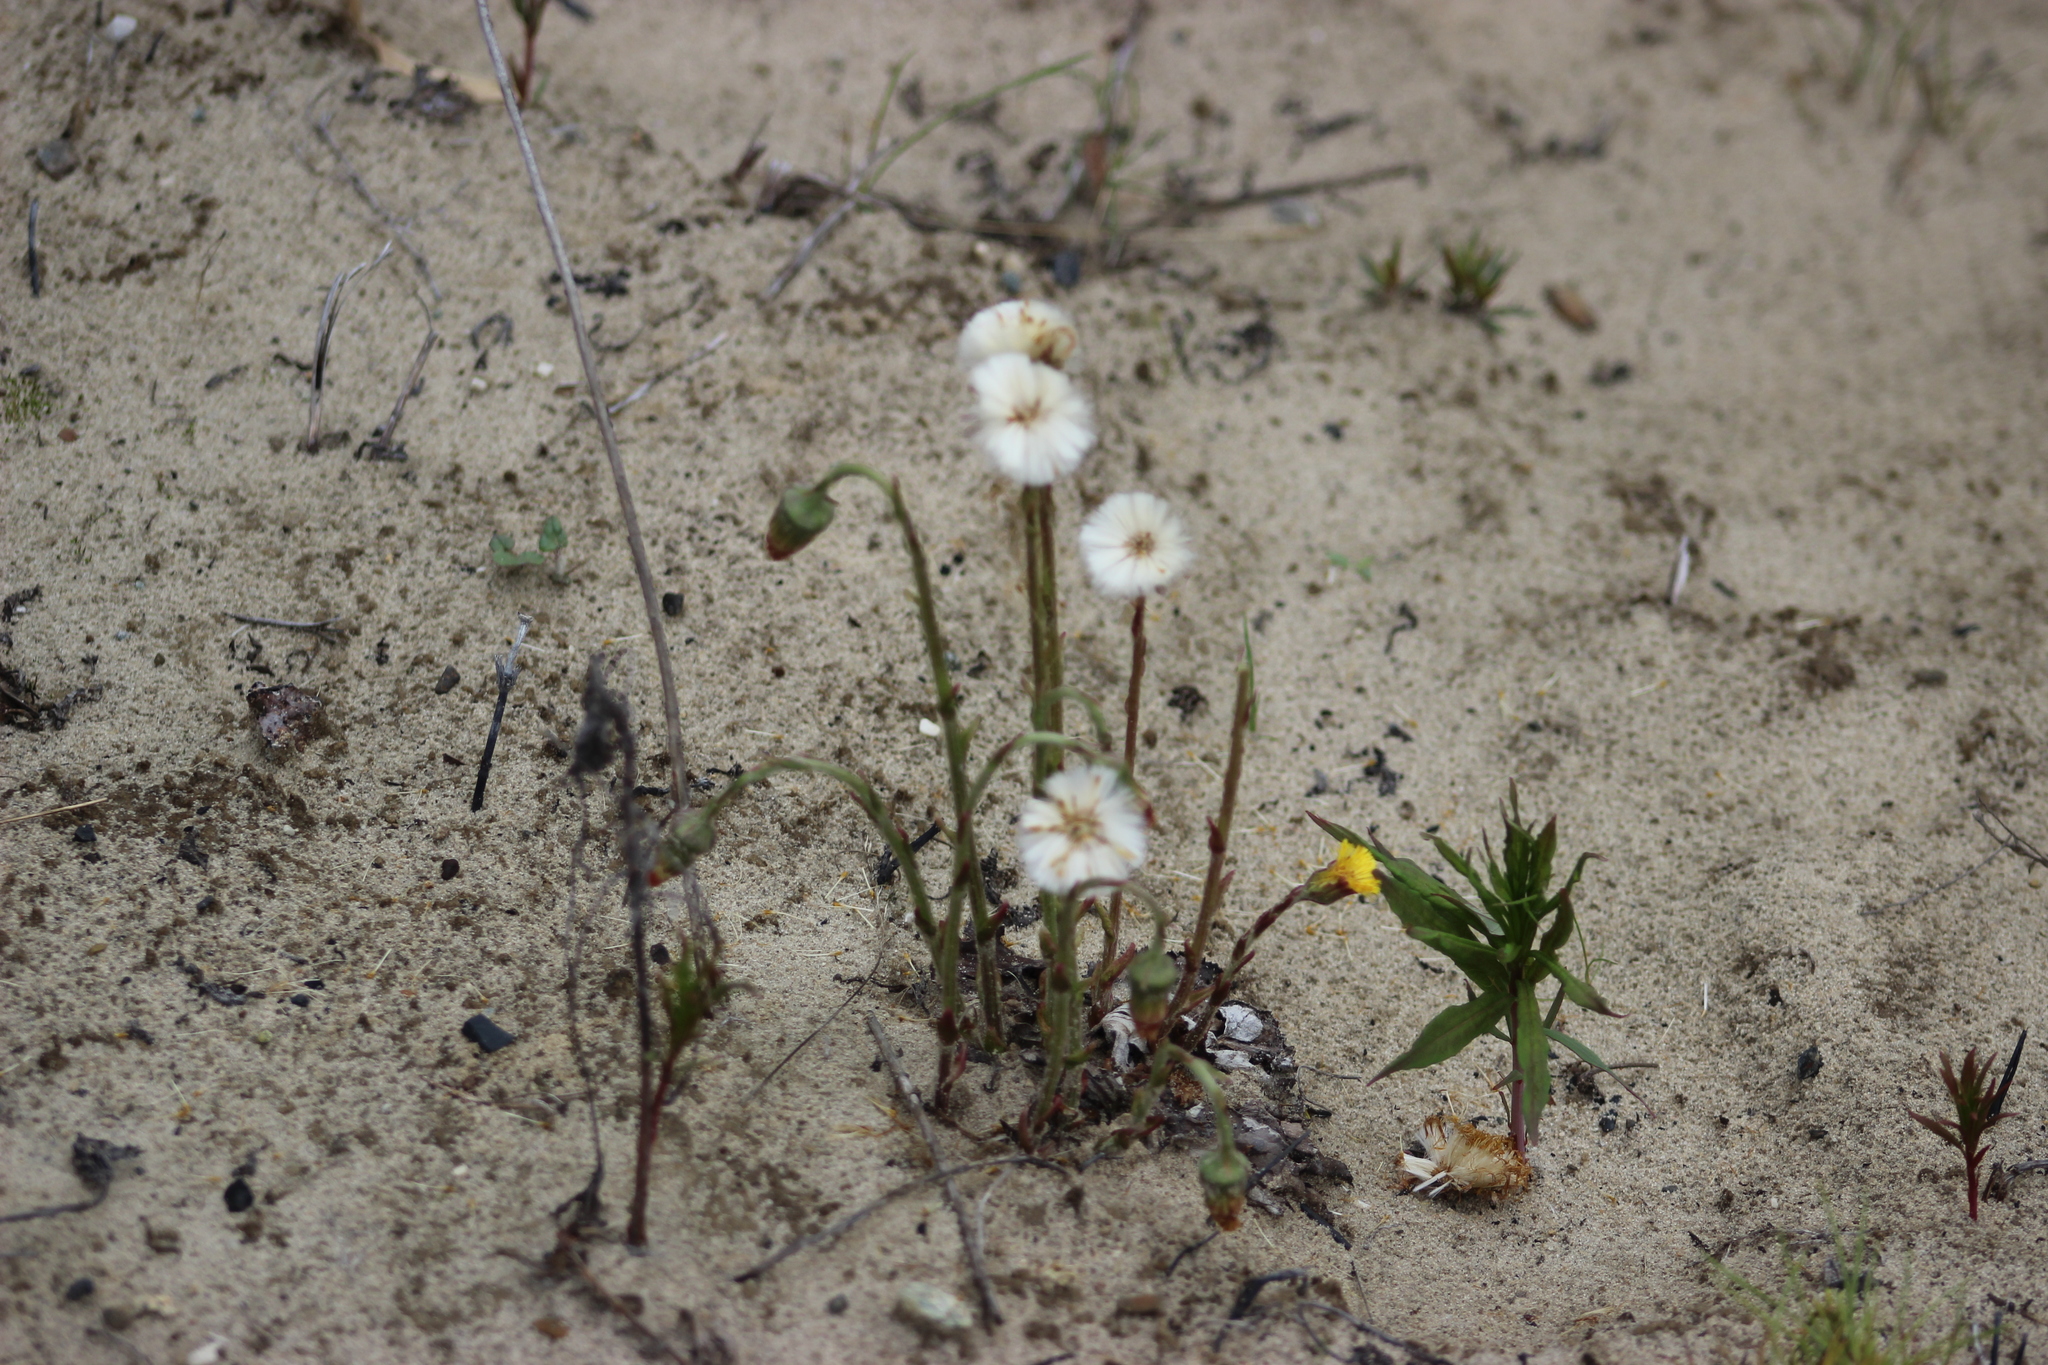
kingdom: Plantae
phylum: Tracheophyta
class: Magnoliopsida
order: Asterales
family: Asteraceae
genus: Tussilago
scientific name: Tussilago farfara
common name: Coltsfoot
